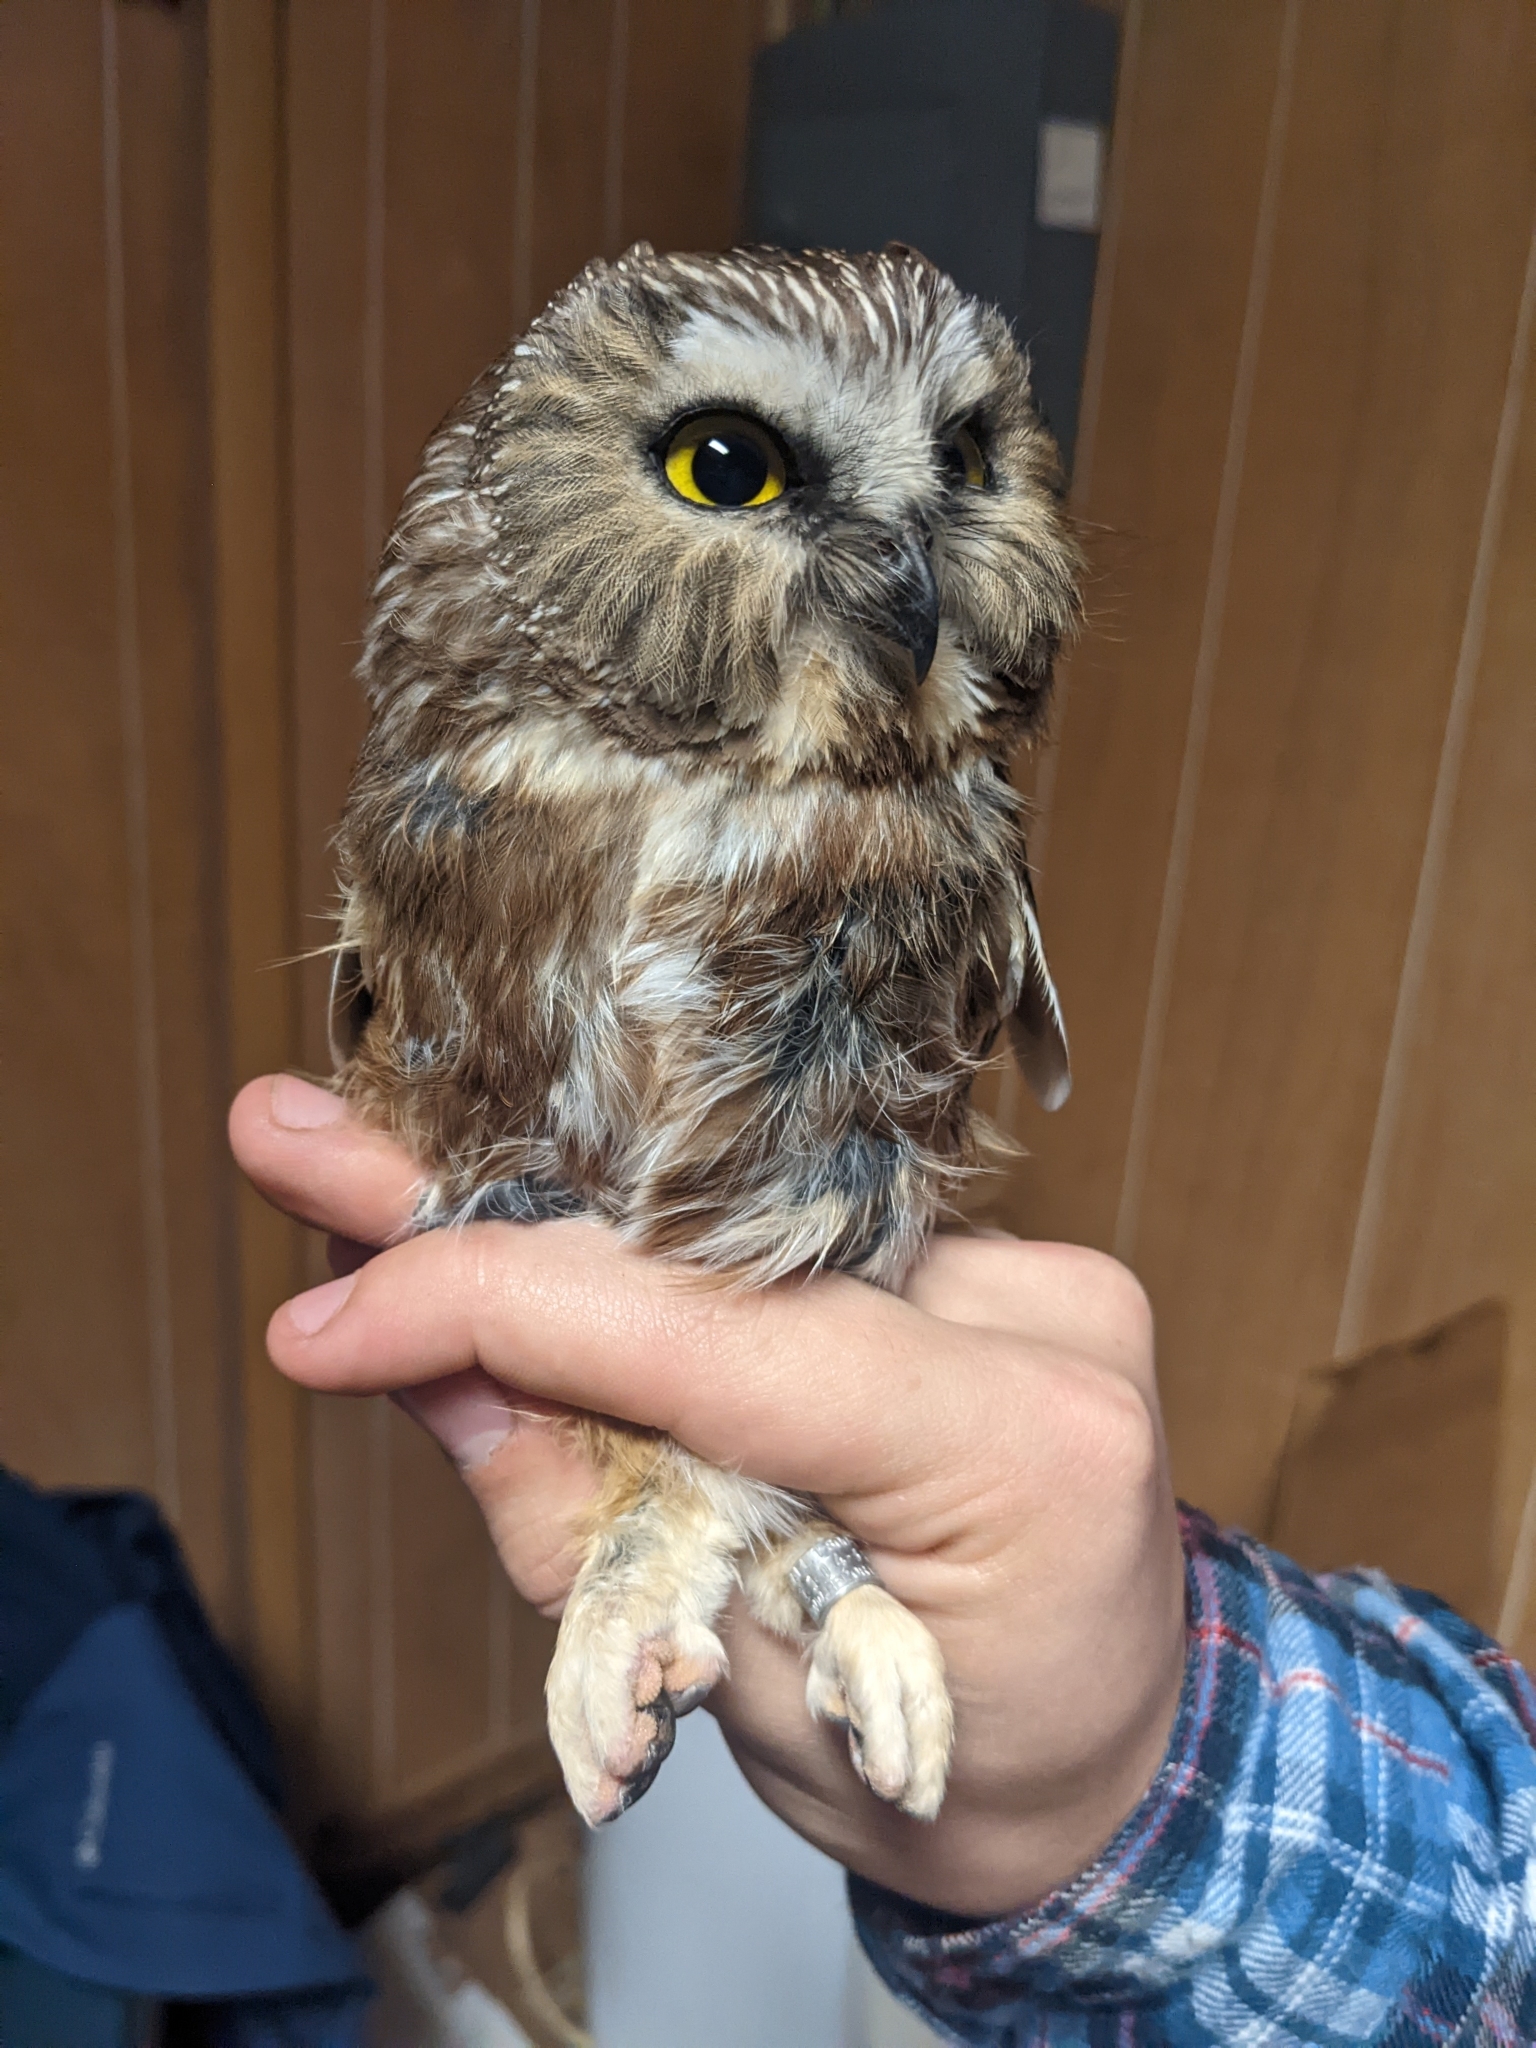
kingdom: Animalia
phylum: Chordata
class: Aves
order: Strigiformes
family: Strigidae
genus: Aegolius
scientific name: Aegolius acadicus
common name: Northern saw-whet owl
